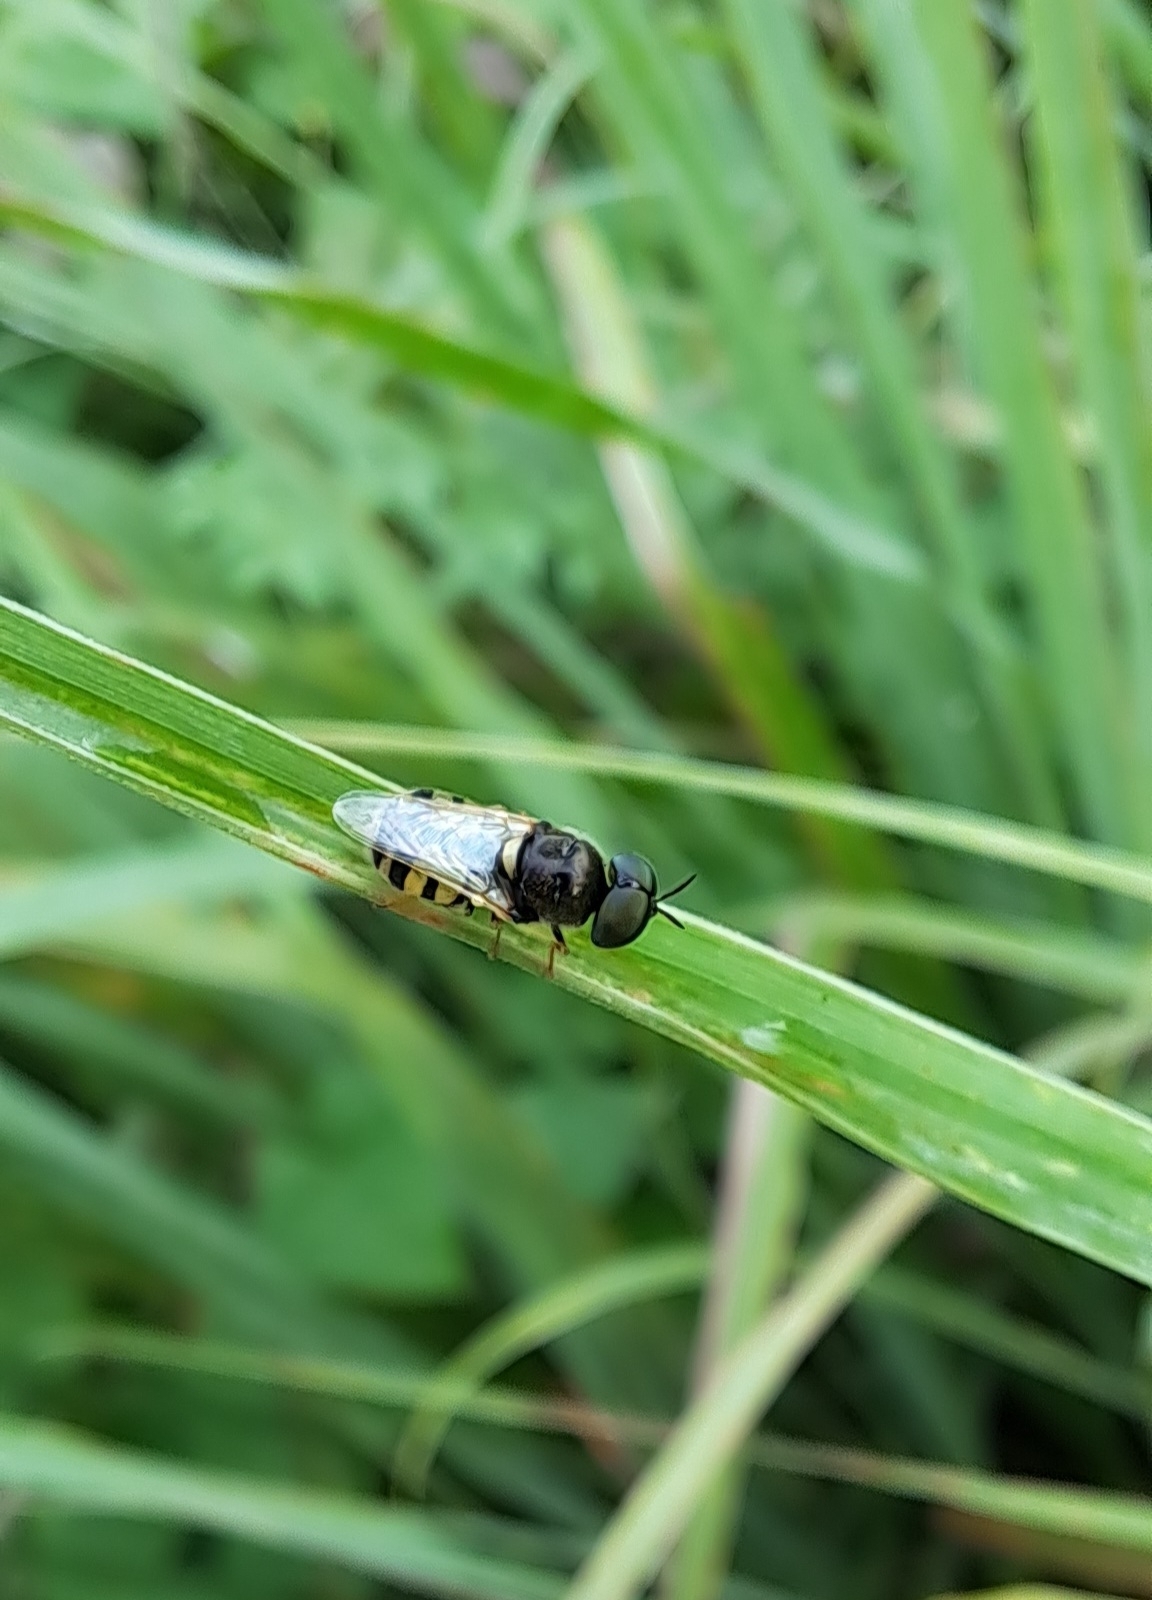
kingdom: Animalia
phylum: Arthropoda
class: Insecta
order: Diptera
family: Stratiomyidae
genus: Oplodontha
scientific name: Oplodontha facinigra
